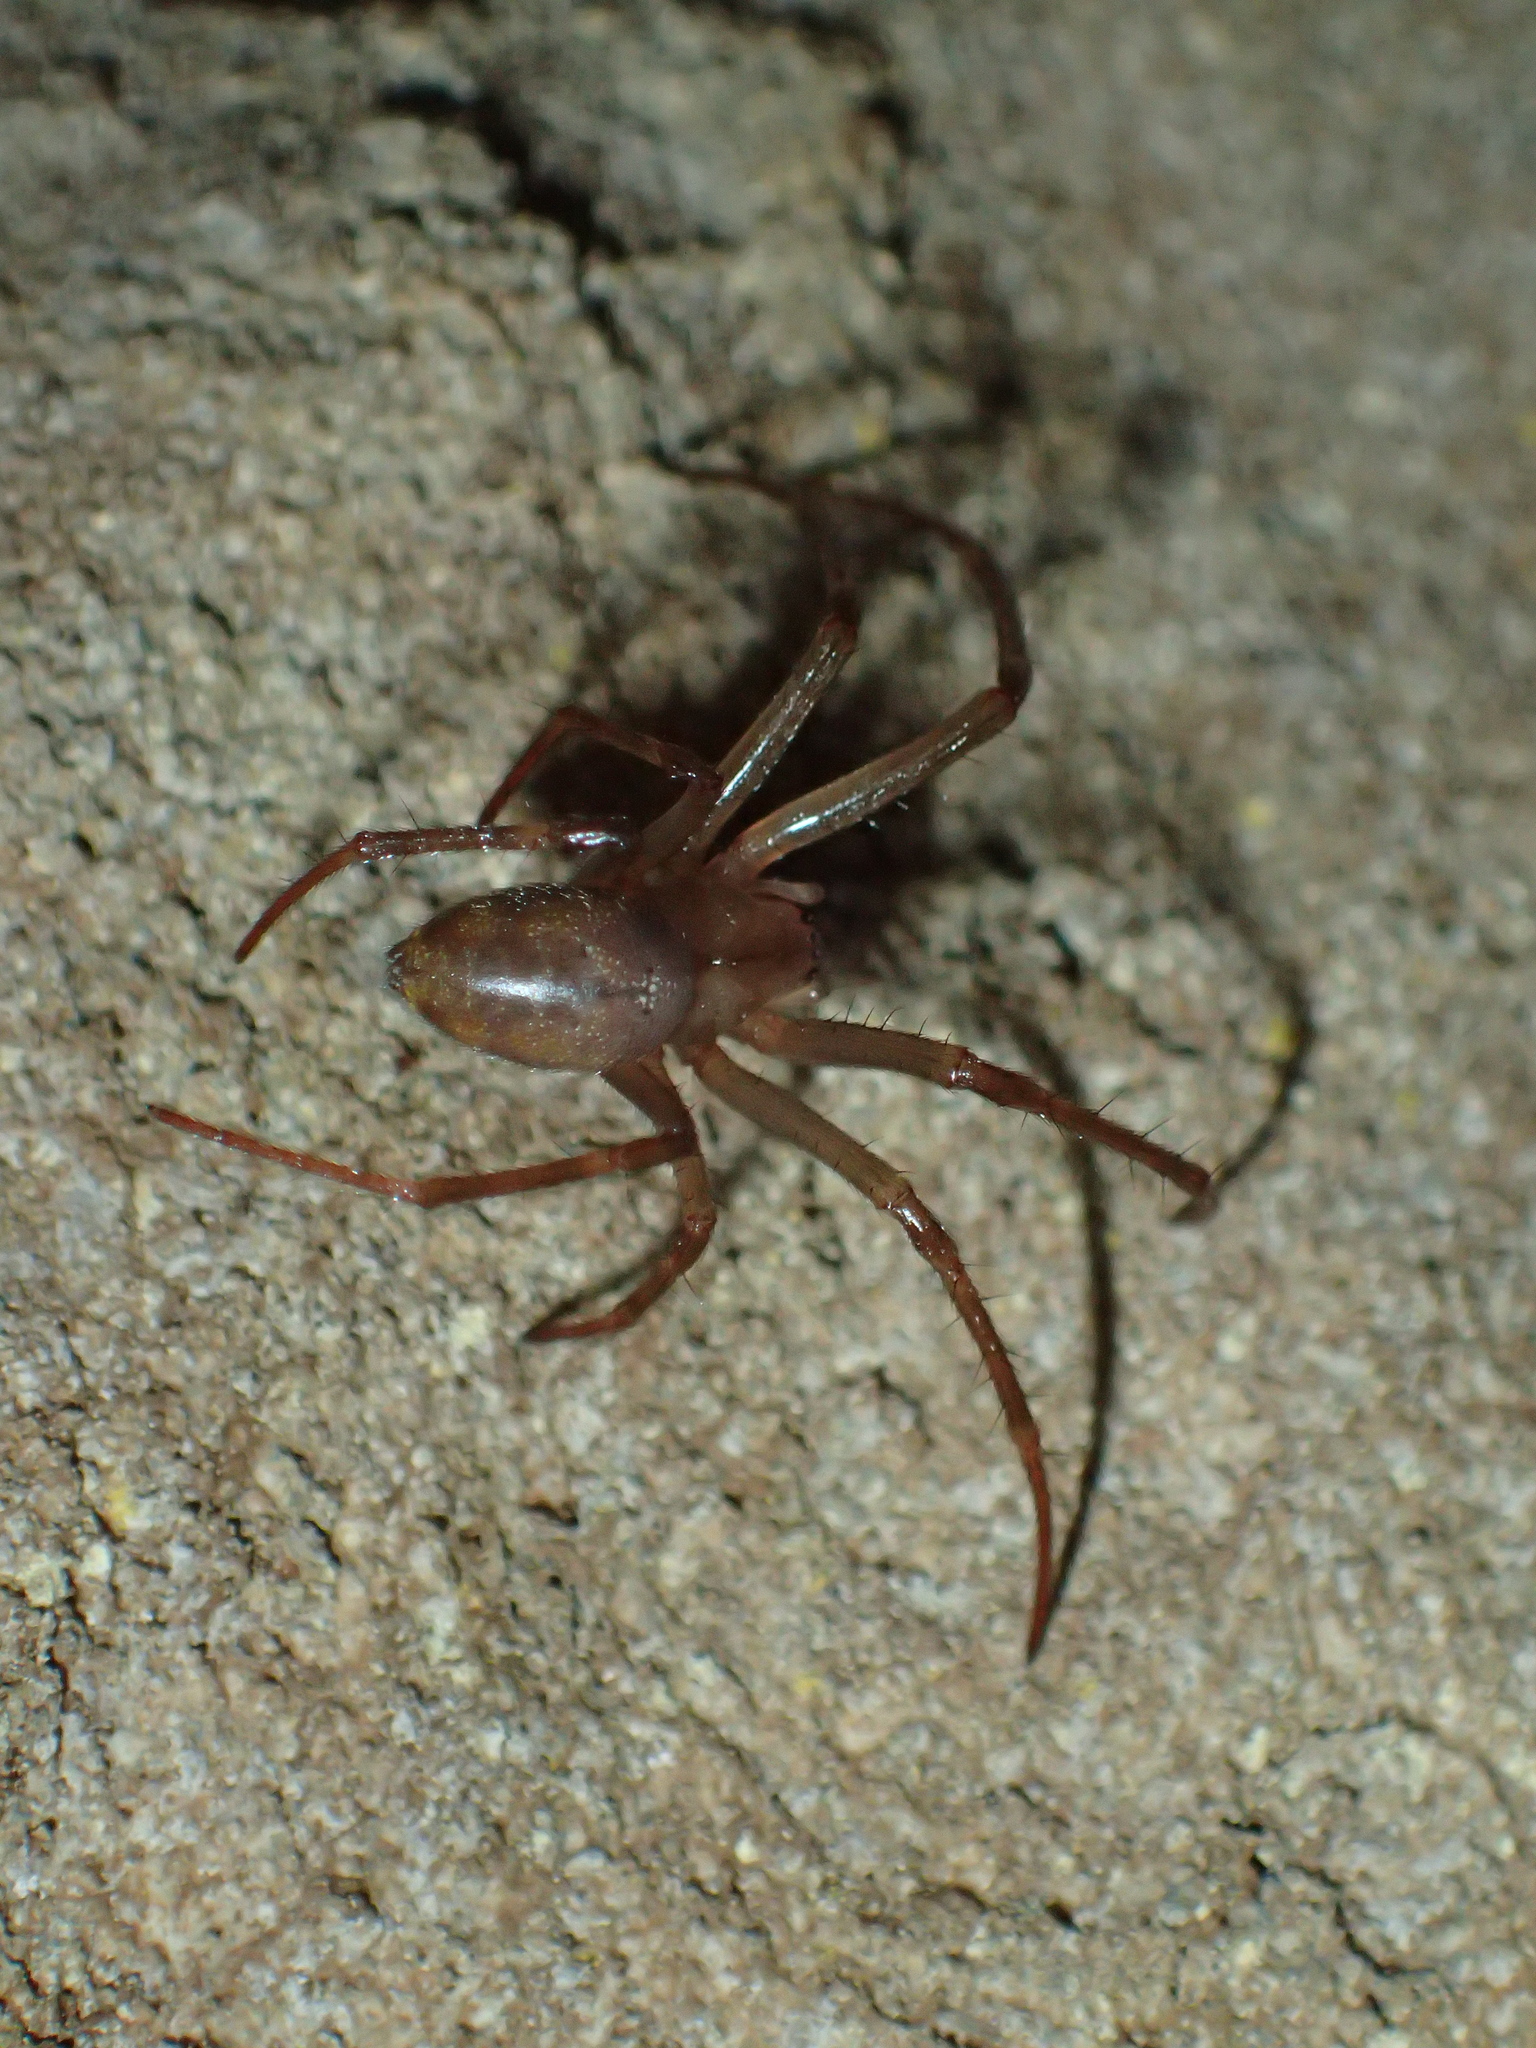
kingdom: Animalia
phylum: Arthropoda
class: Arachnida
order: Araneae
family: Tetragnathidae
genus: Meta
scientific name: Meta bourneti
